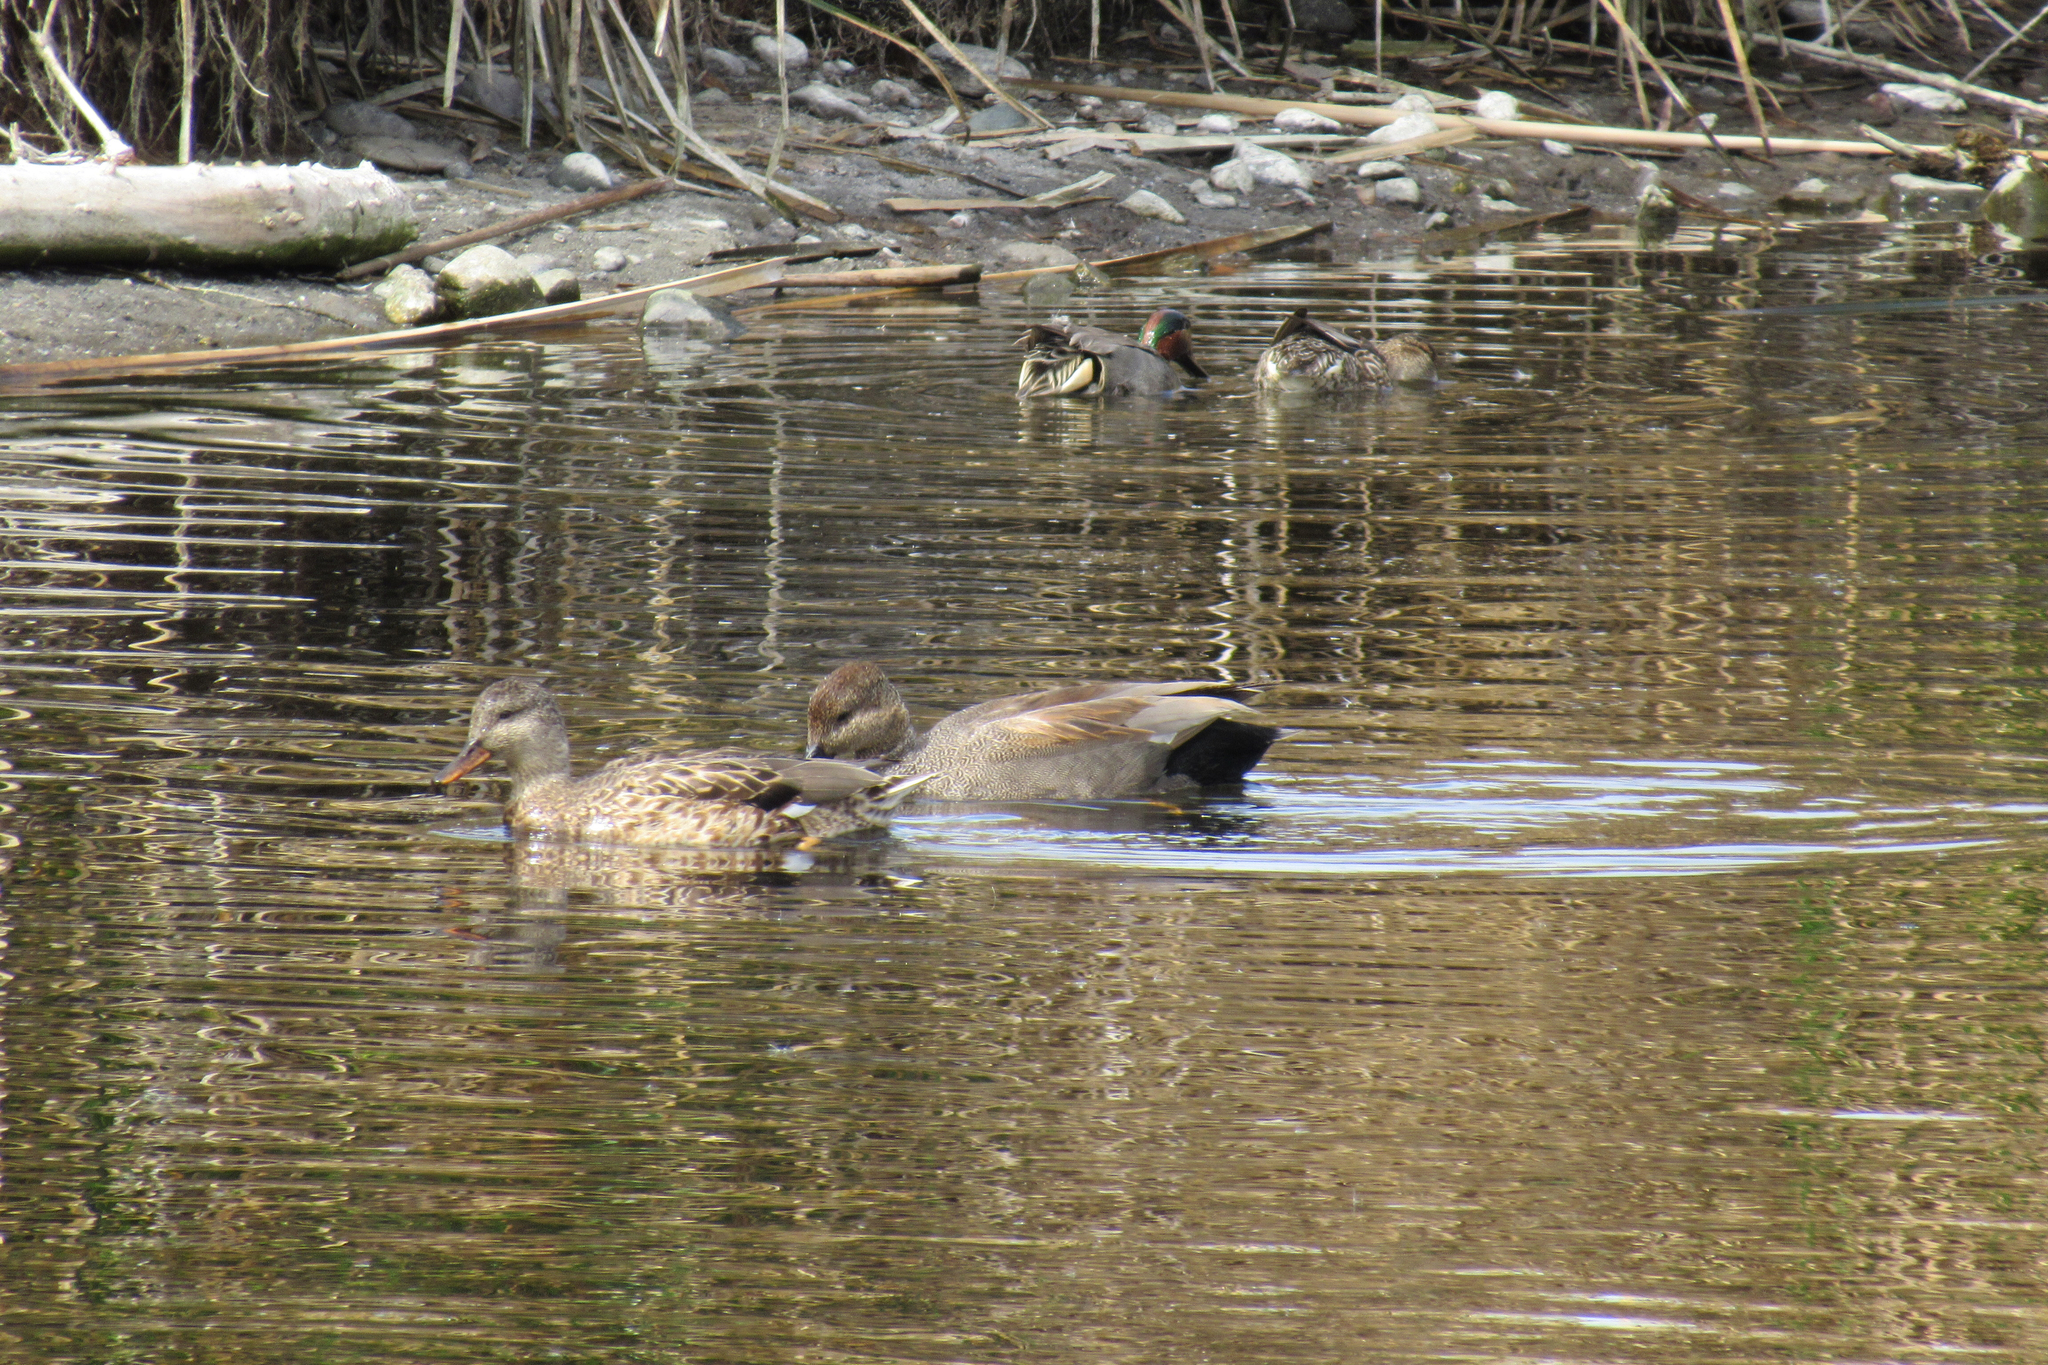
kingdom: Animalia
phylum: Chordata
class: Aves
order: Anseriformes
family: Anatidae
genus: Mareca
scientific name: Mareca strepera
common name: Gadwall
